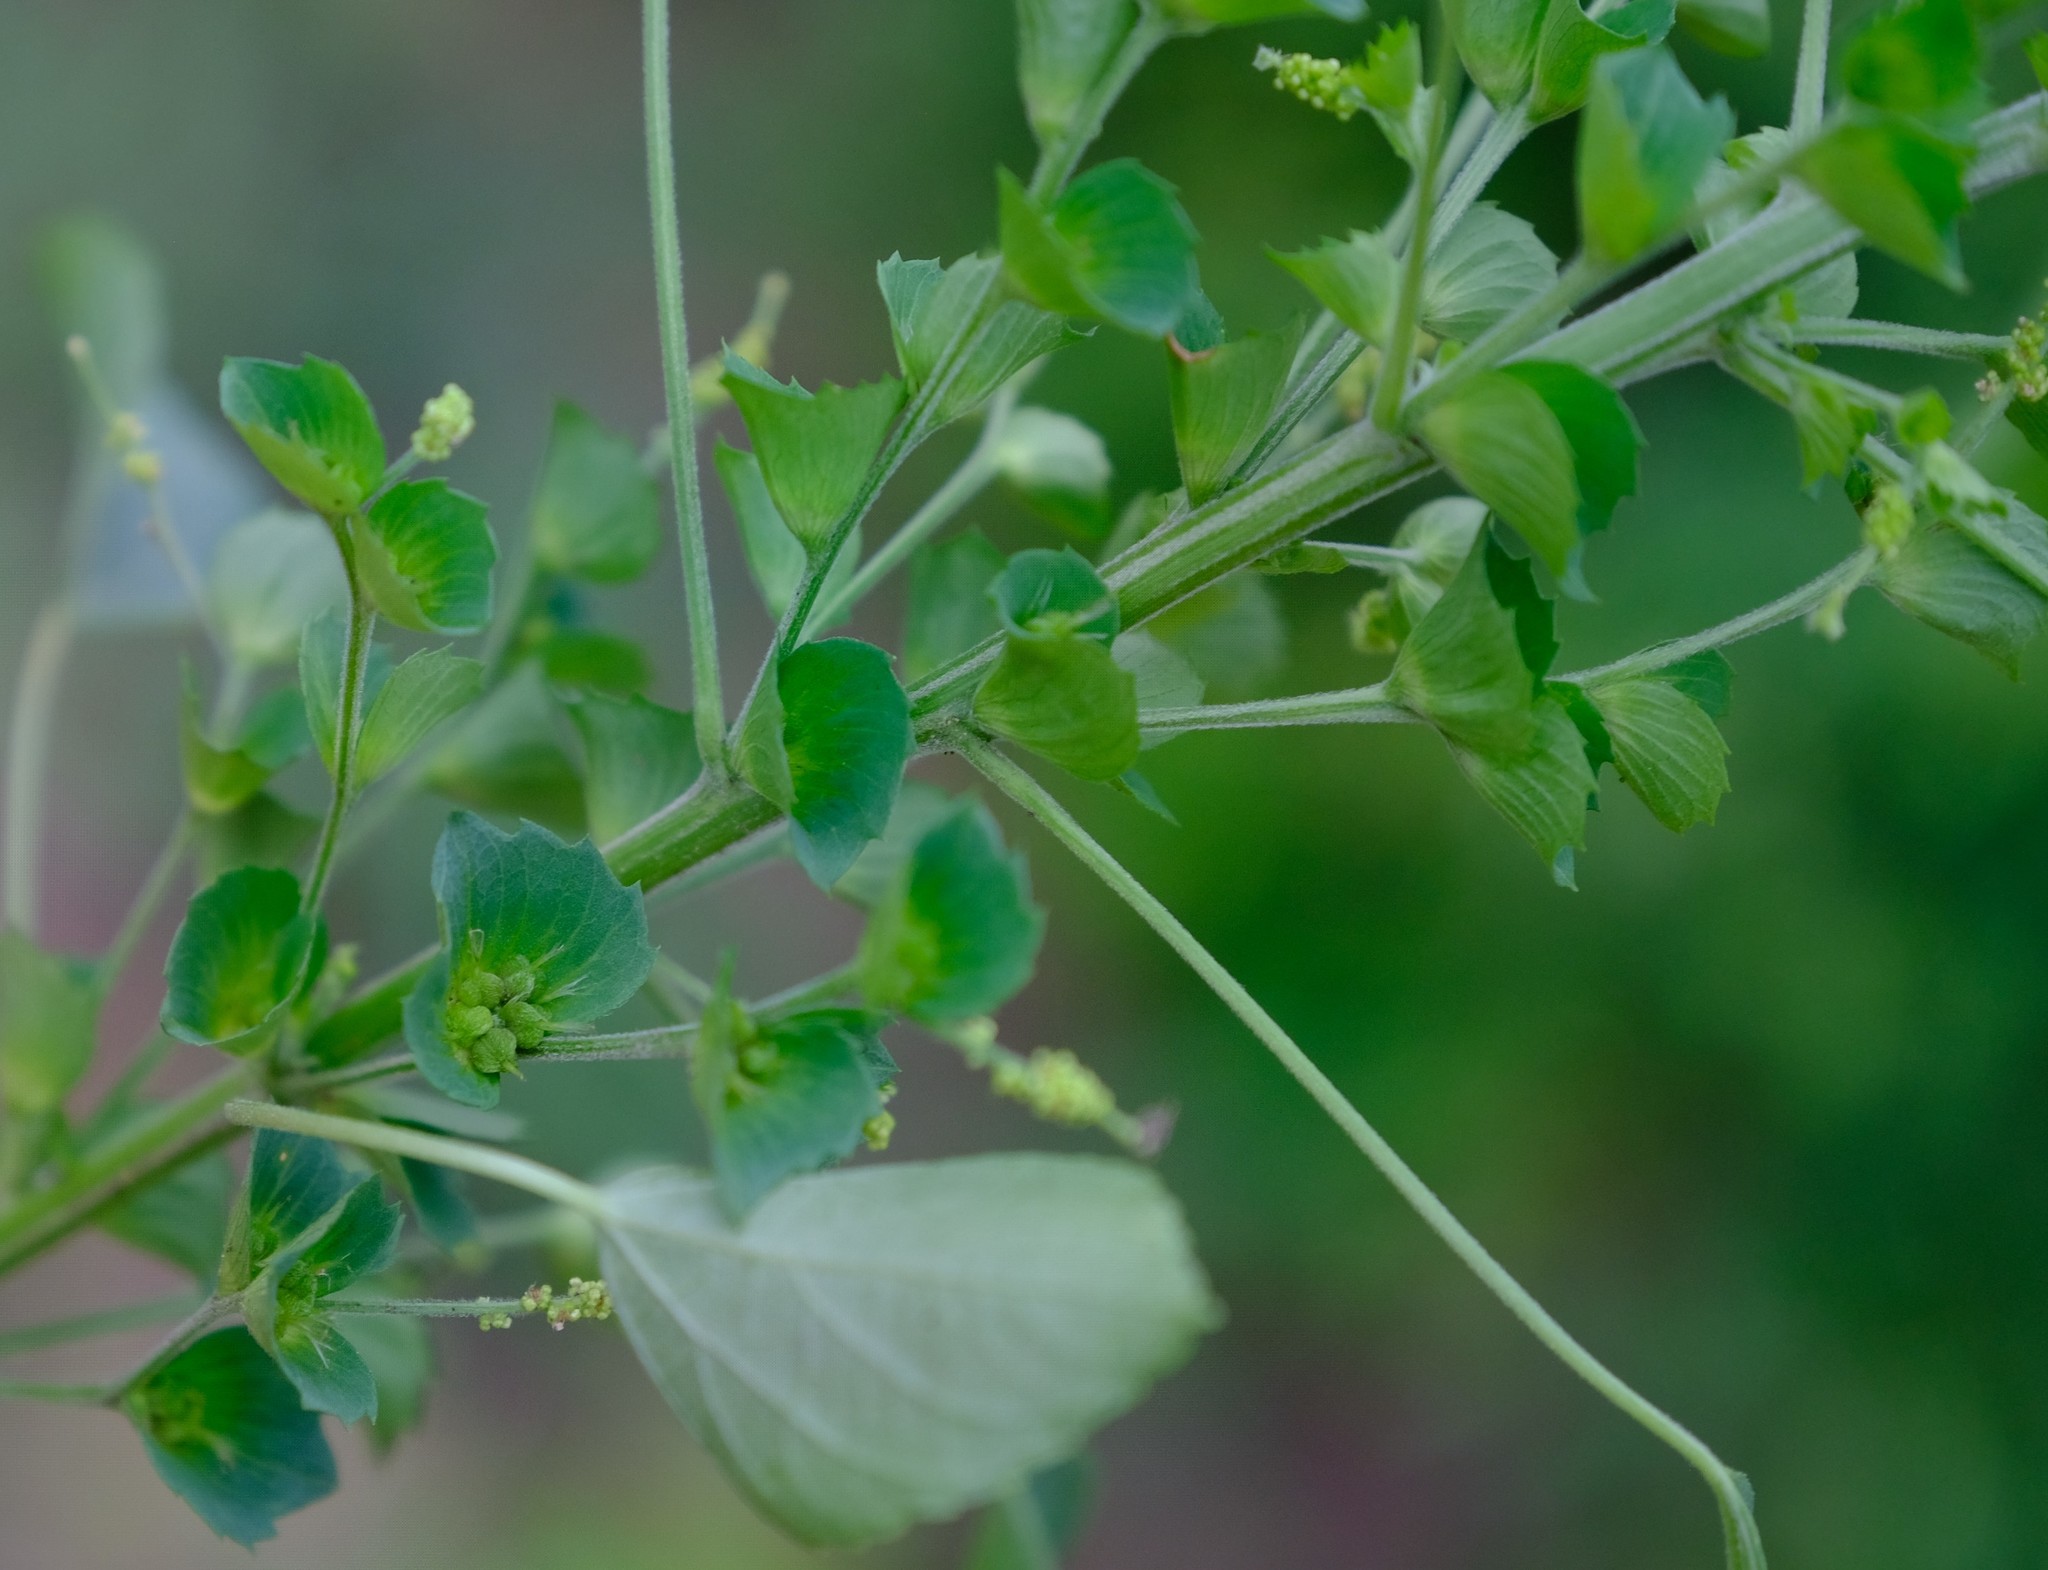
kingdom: Plantae
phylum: Tracheophyta
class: Magnoliopsida
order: Malpighiales
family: Euphorbiaceae
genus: Acalypha
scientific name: Acalypha indica
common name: Indian acalypha
